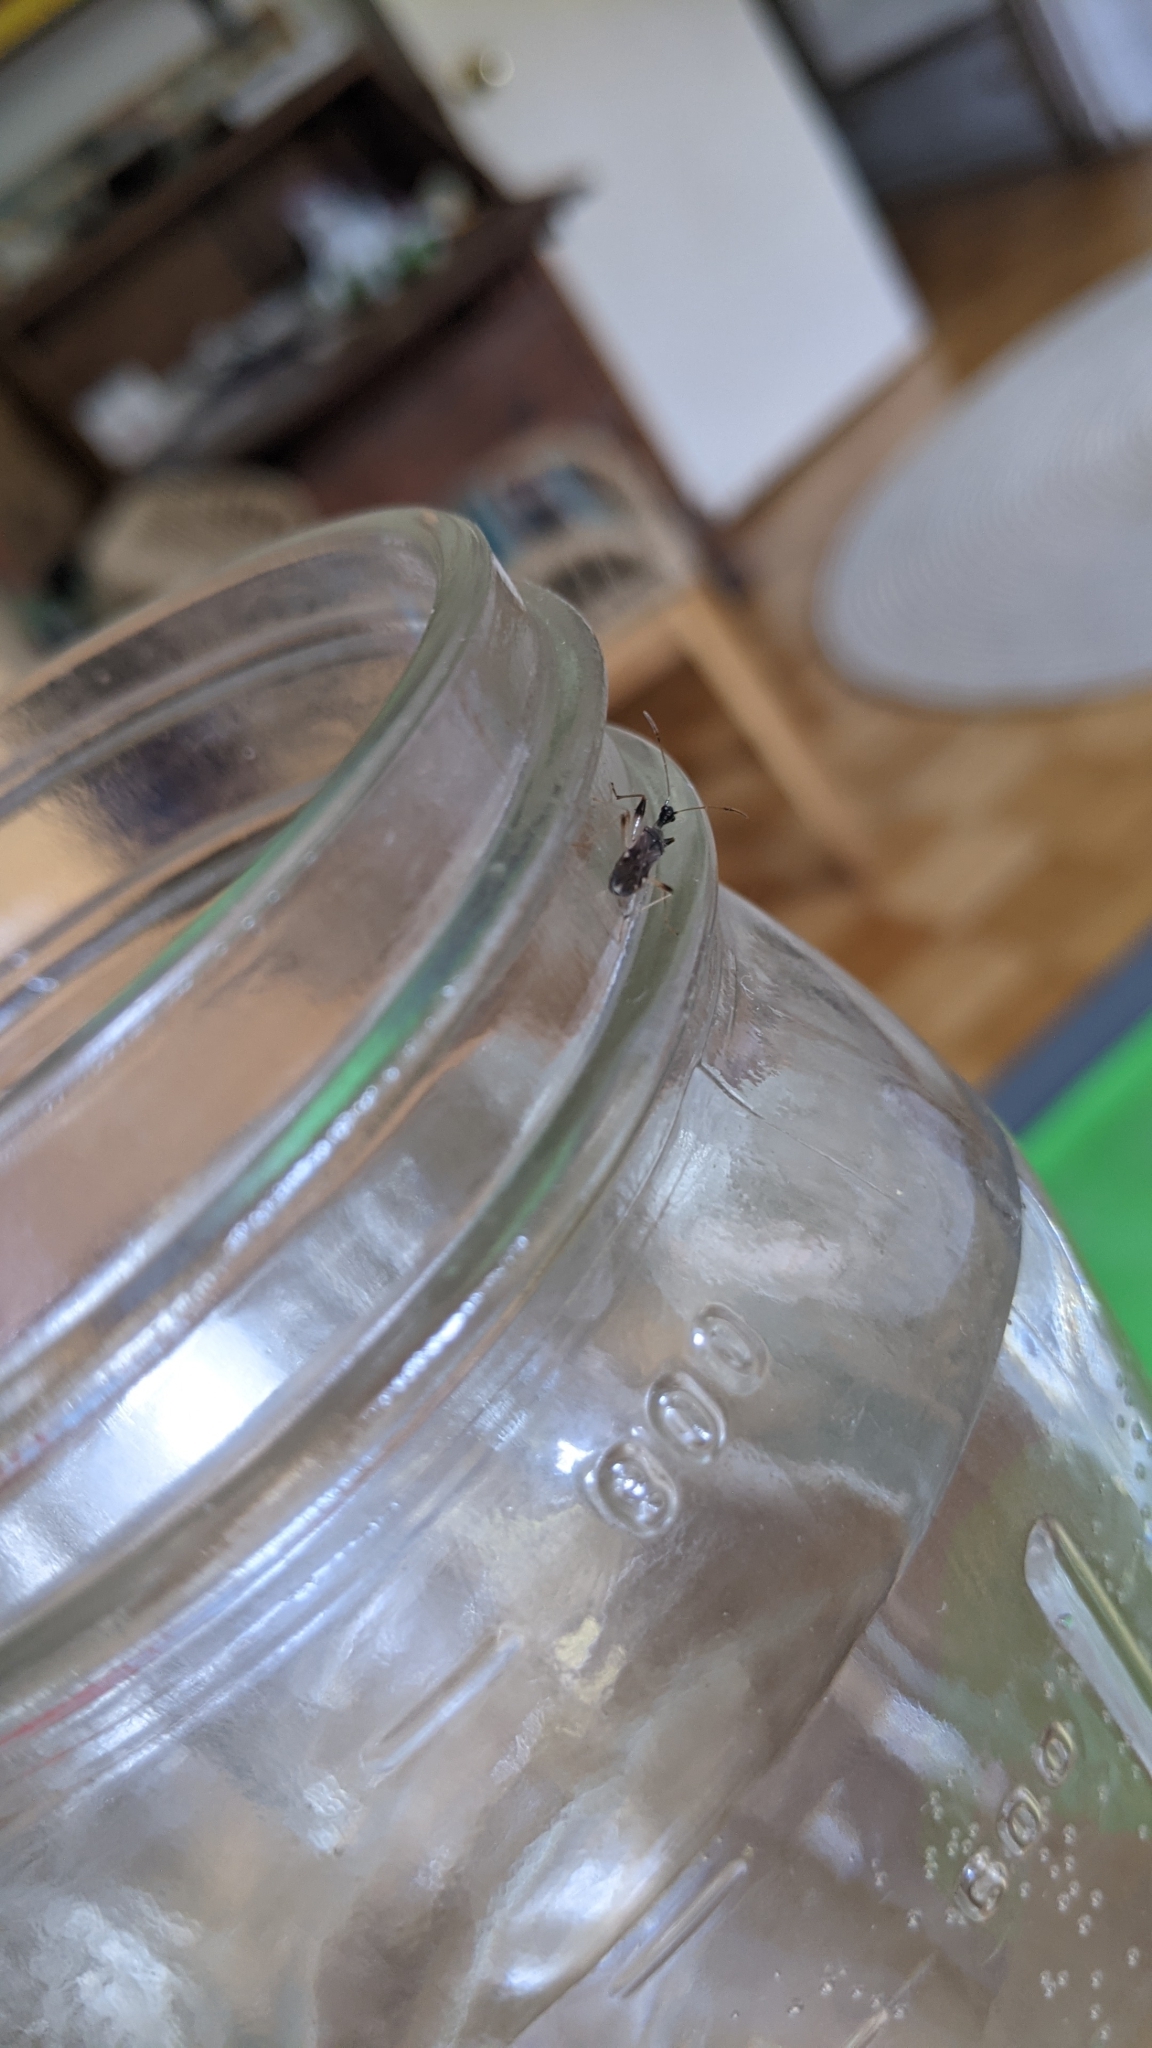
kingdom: Animalia
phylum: Arthropoda
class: Insecta
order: Hemiptera
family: Rhyparochromidae
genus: Myodocha
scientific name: Myodocha serripes
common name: Long-necked seed bug
